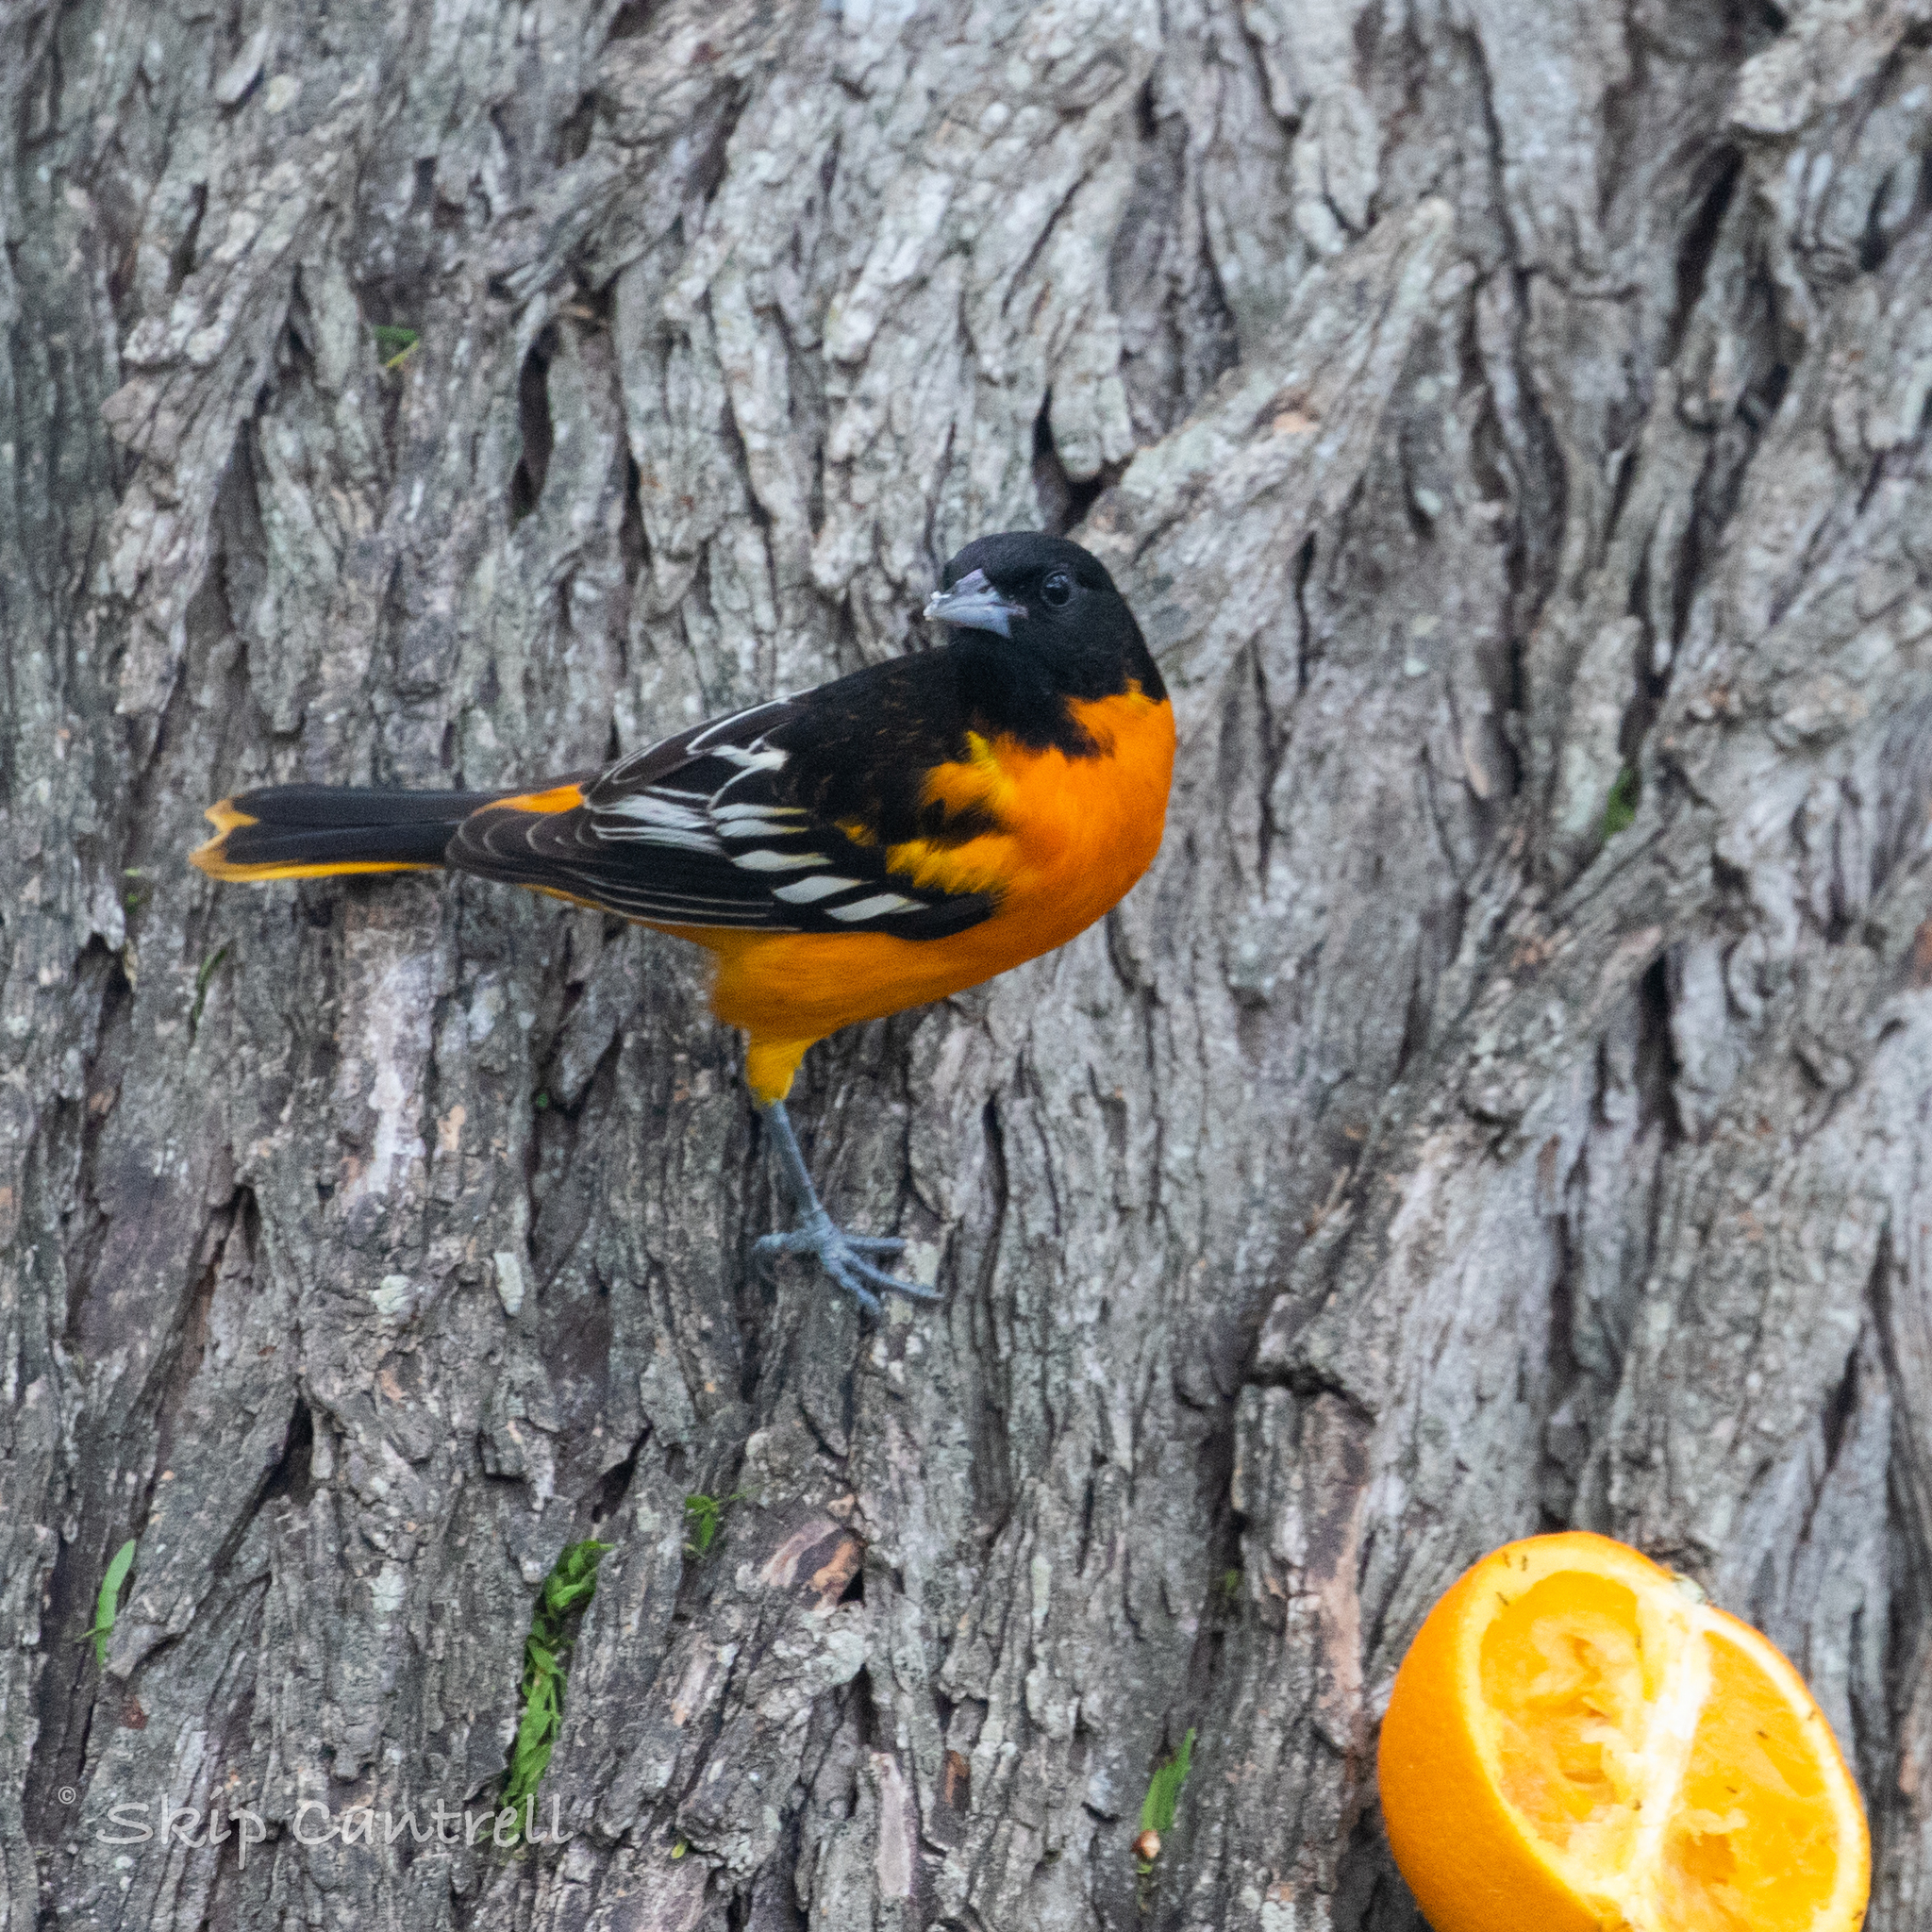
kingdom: Animalia
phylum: Chordata
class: Aves
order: Passeriformes
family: Icteridae
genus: Icterus
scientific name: Icterus galbula
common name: Baltimore oriole
